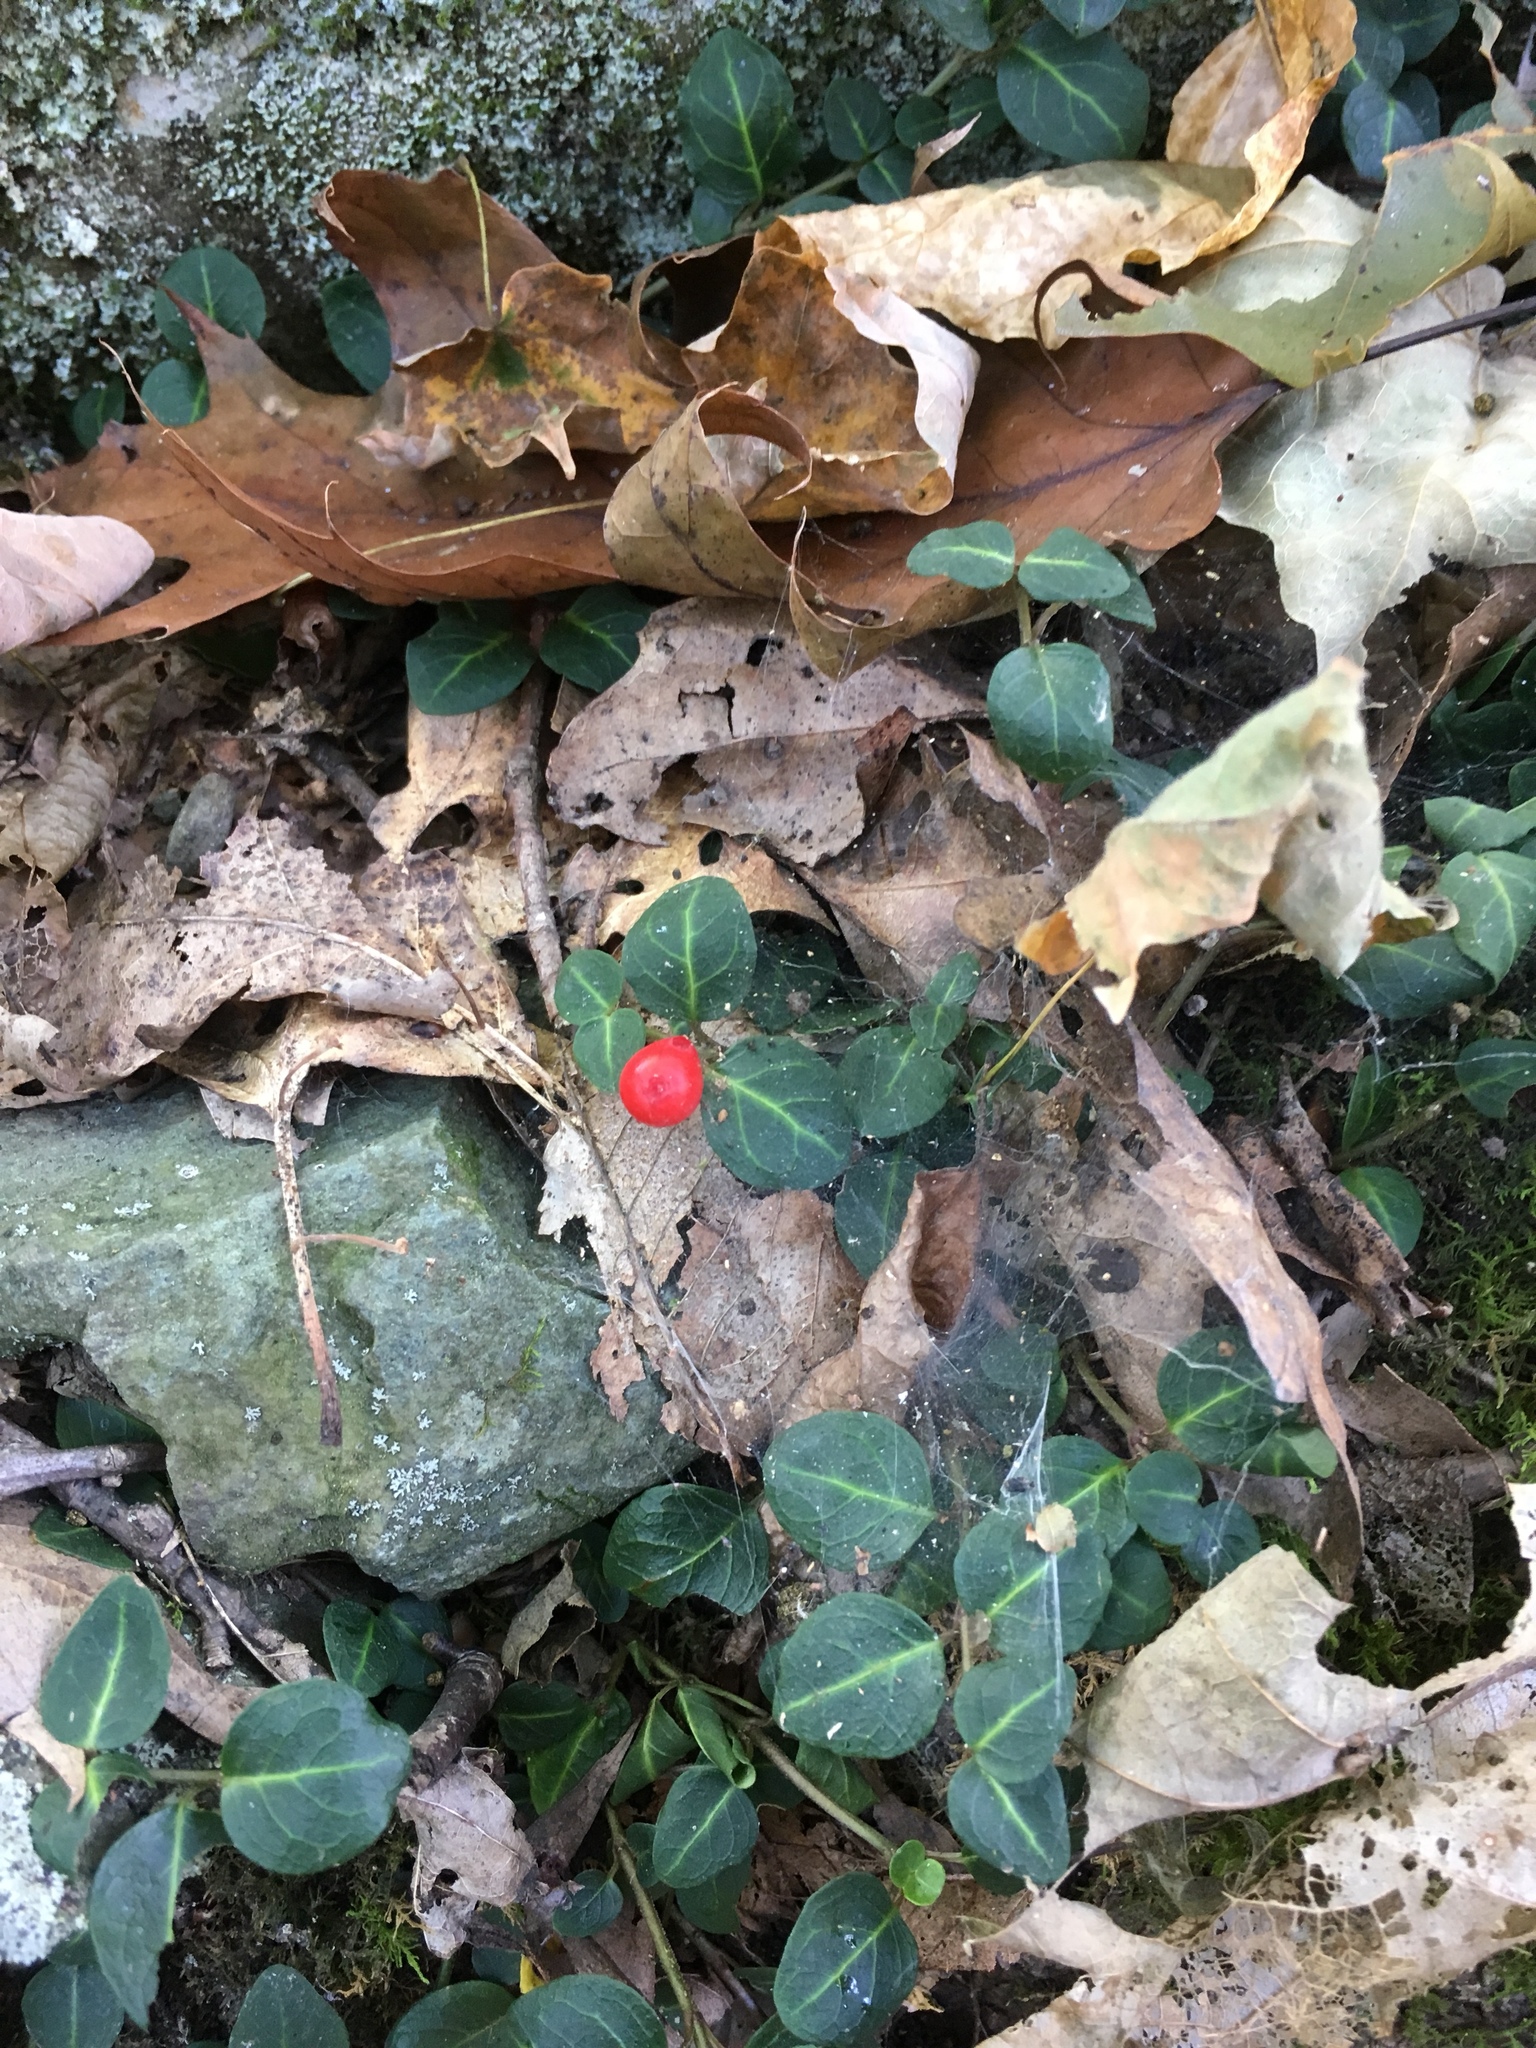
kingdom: Plantae
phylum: Tracheophyta
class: Magnoliopsida
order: Gentianales
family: Rubiaceae
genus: Mitchella
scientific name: Mitchella repens
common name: Partridge-berry
